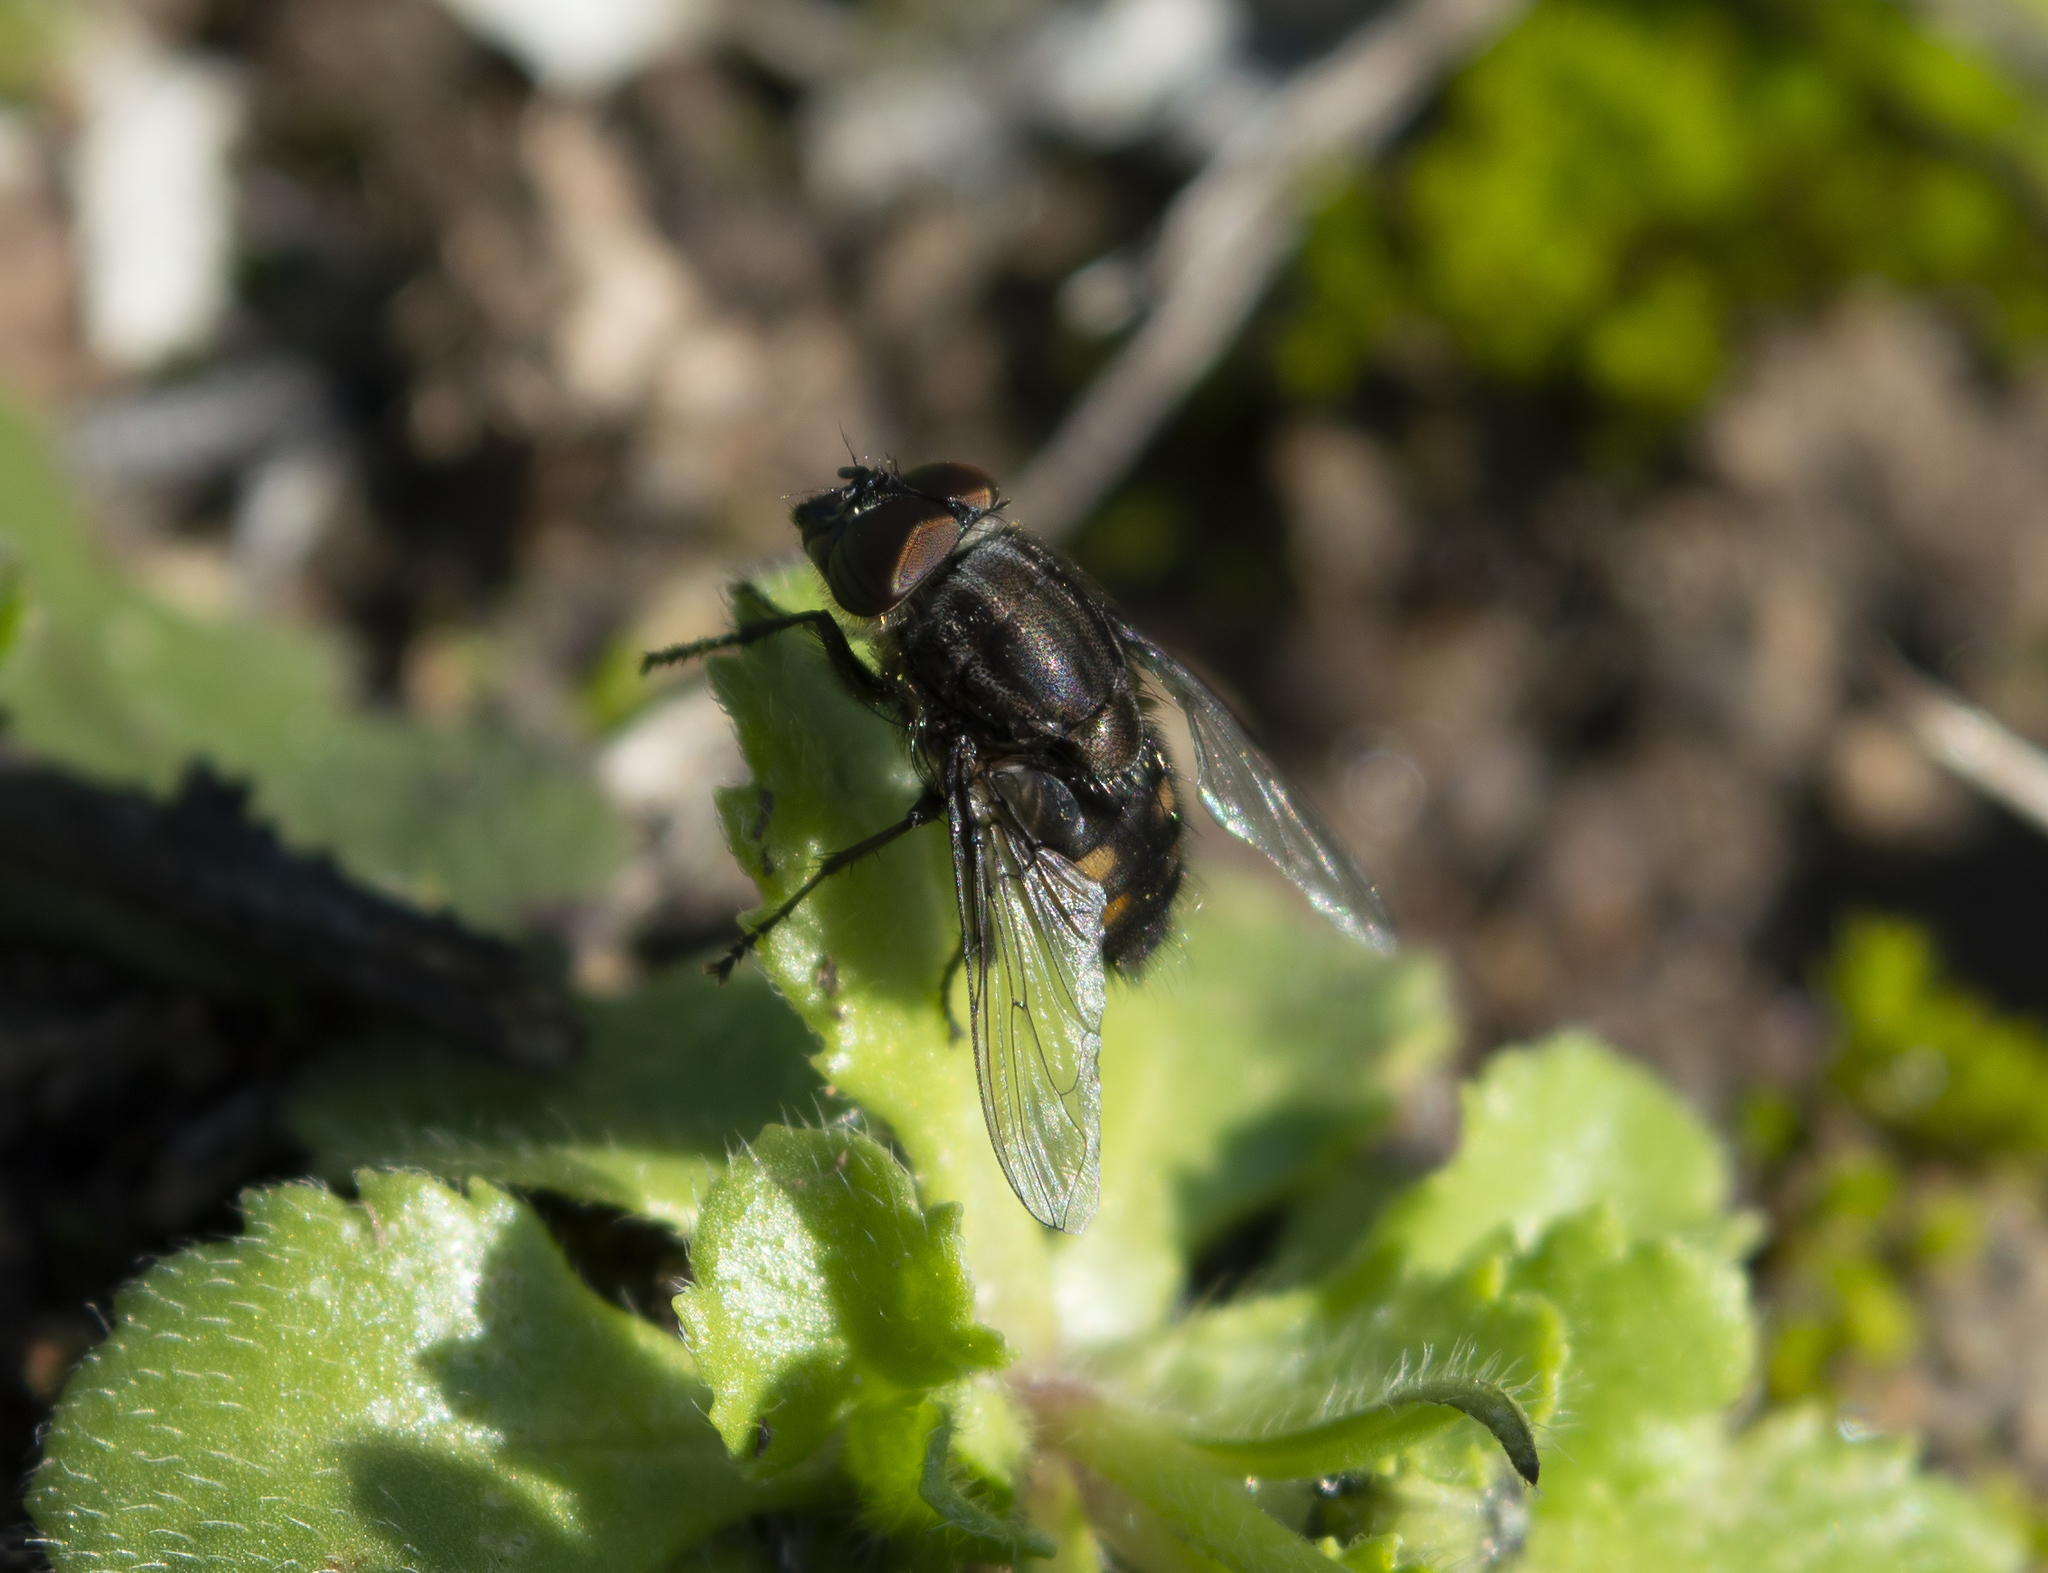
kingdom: Animalia
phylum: Arthropoda
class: Insecta
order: Diptera
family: Calliphoridae
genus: Stomorhina
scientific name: Stomorhina lunata
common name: Locust blowfly
